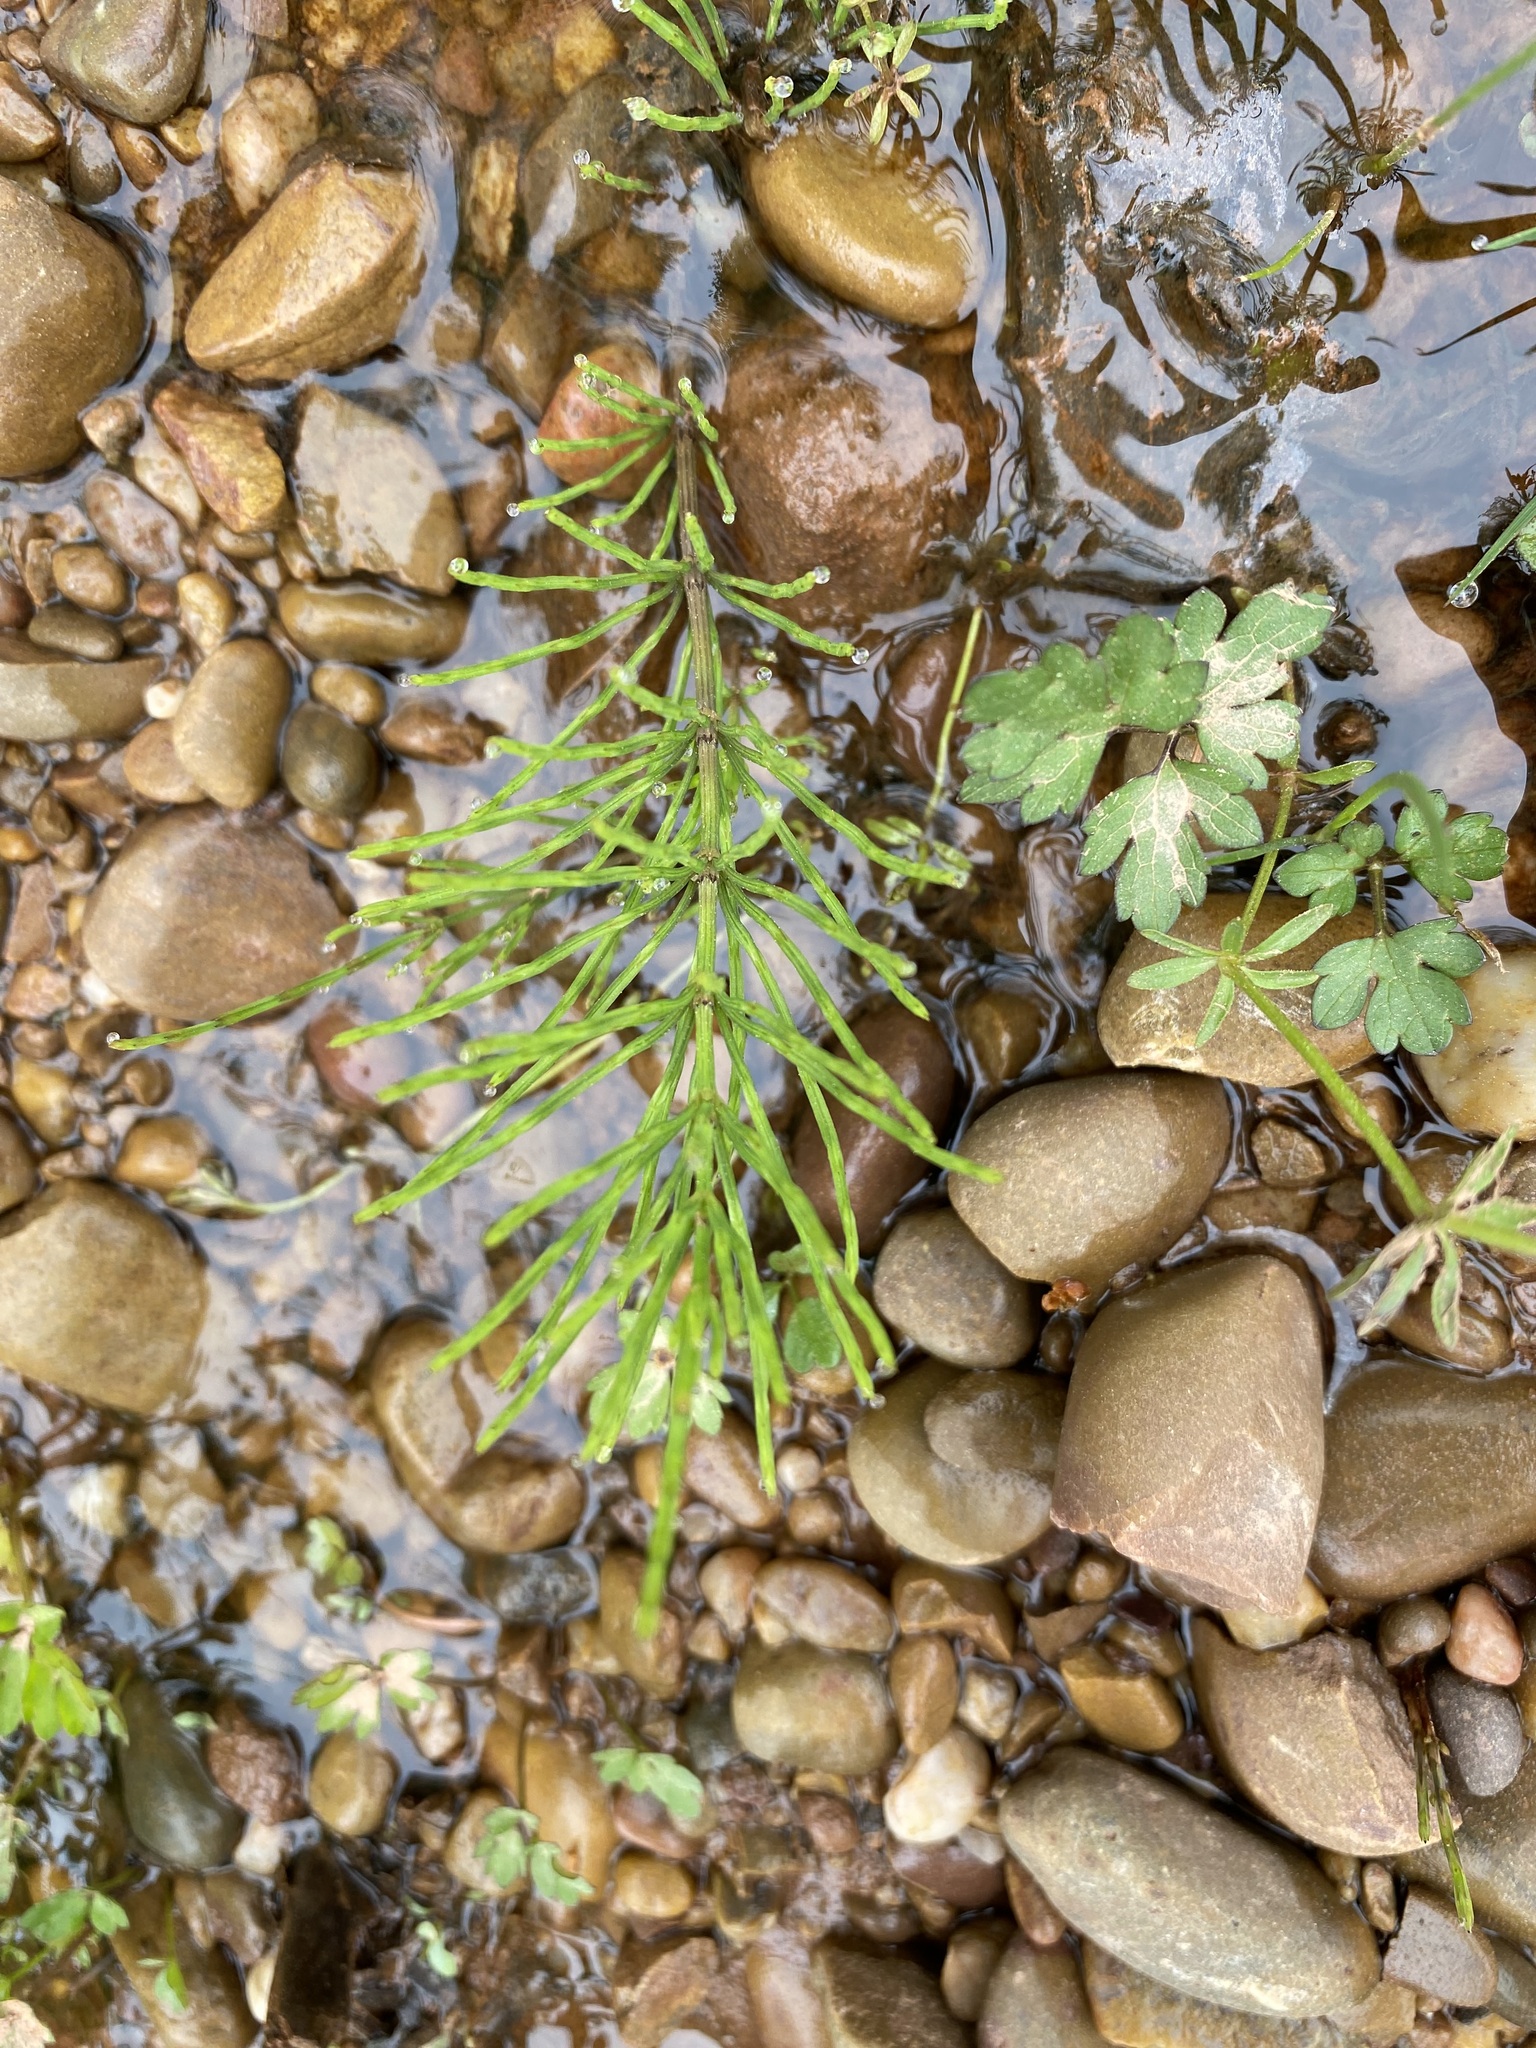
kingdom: Plantae
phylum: Tracheophyta
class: Polypodiopsida
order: Equisetales
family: Equisetaceae
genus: Equisetum
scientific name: Equisetum arvense
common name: Field horsetail
